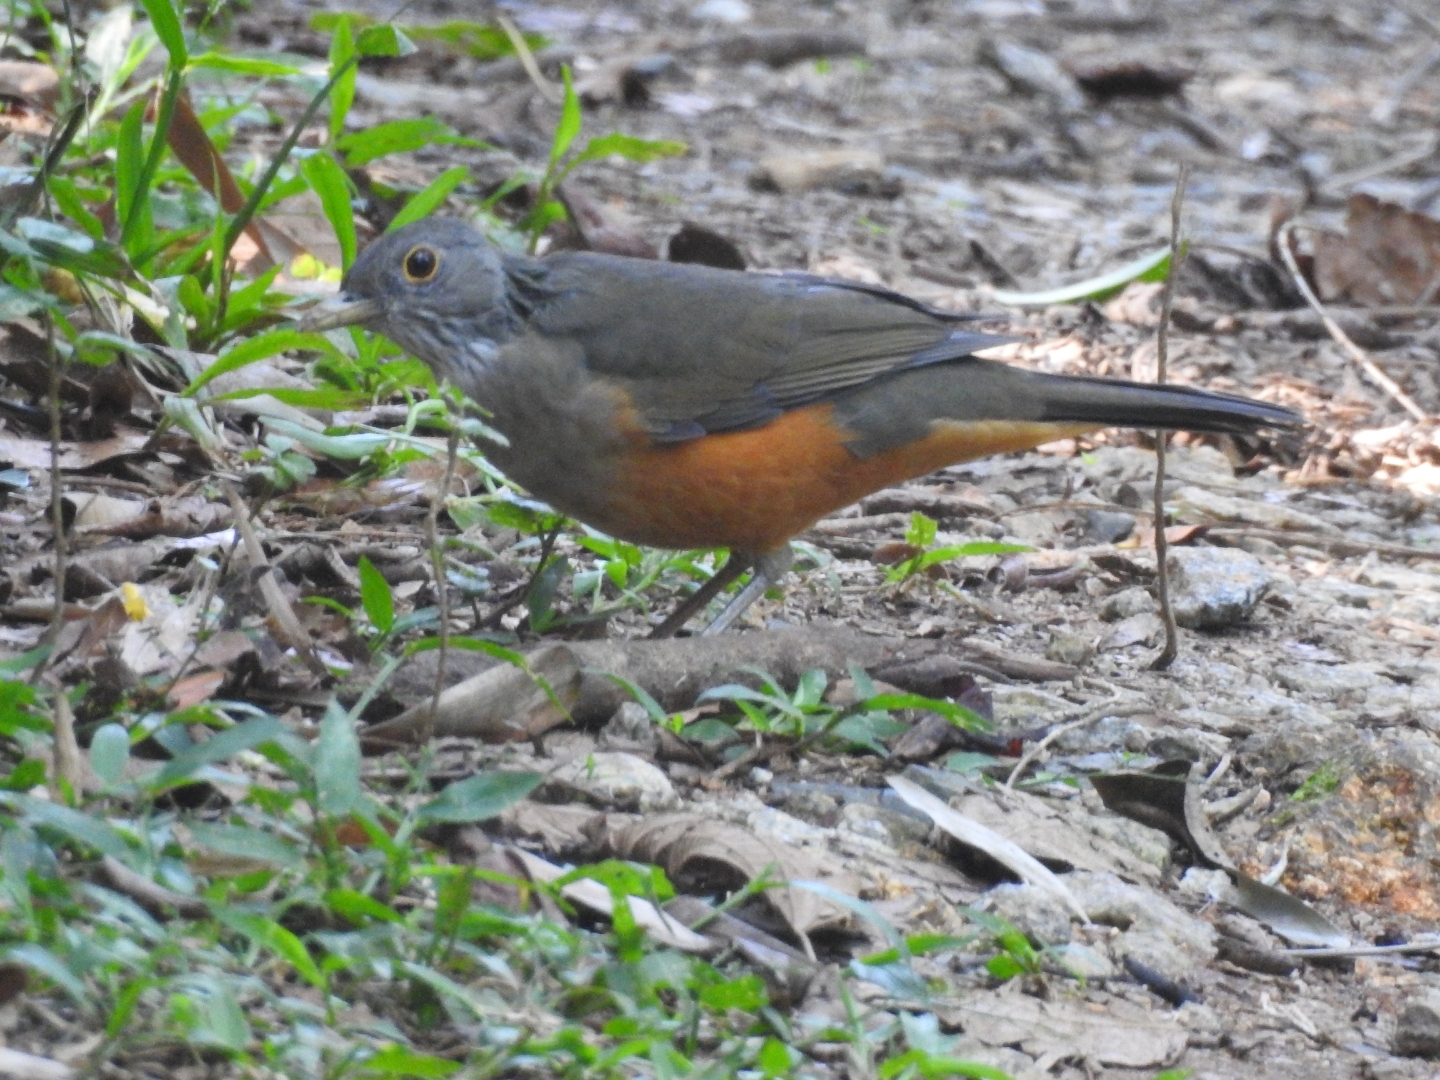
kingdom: Animalia
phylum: Chordata
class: Aves
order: Passeriformes
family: Turdidae
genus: Turdus
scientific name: Turdus rufiventris
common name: Rufous-bellied thrush
